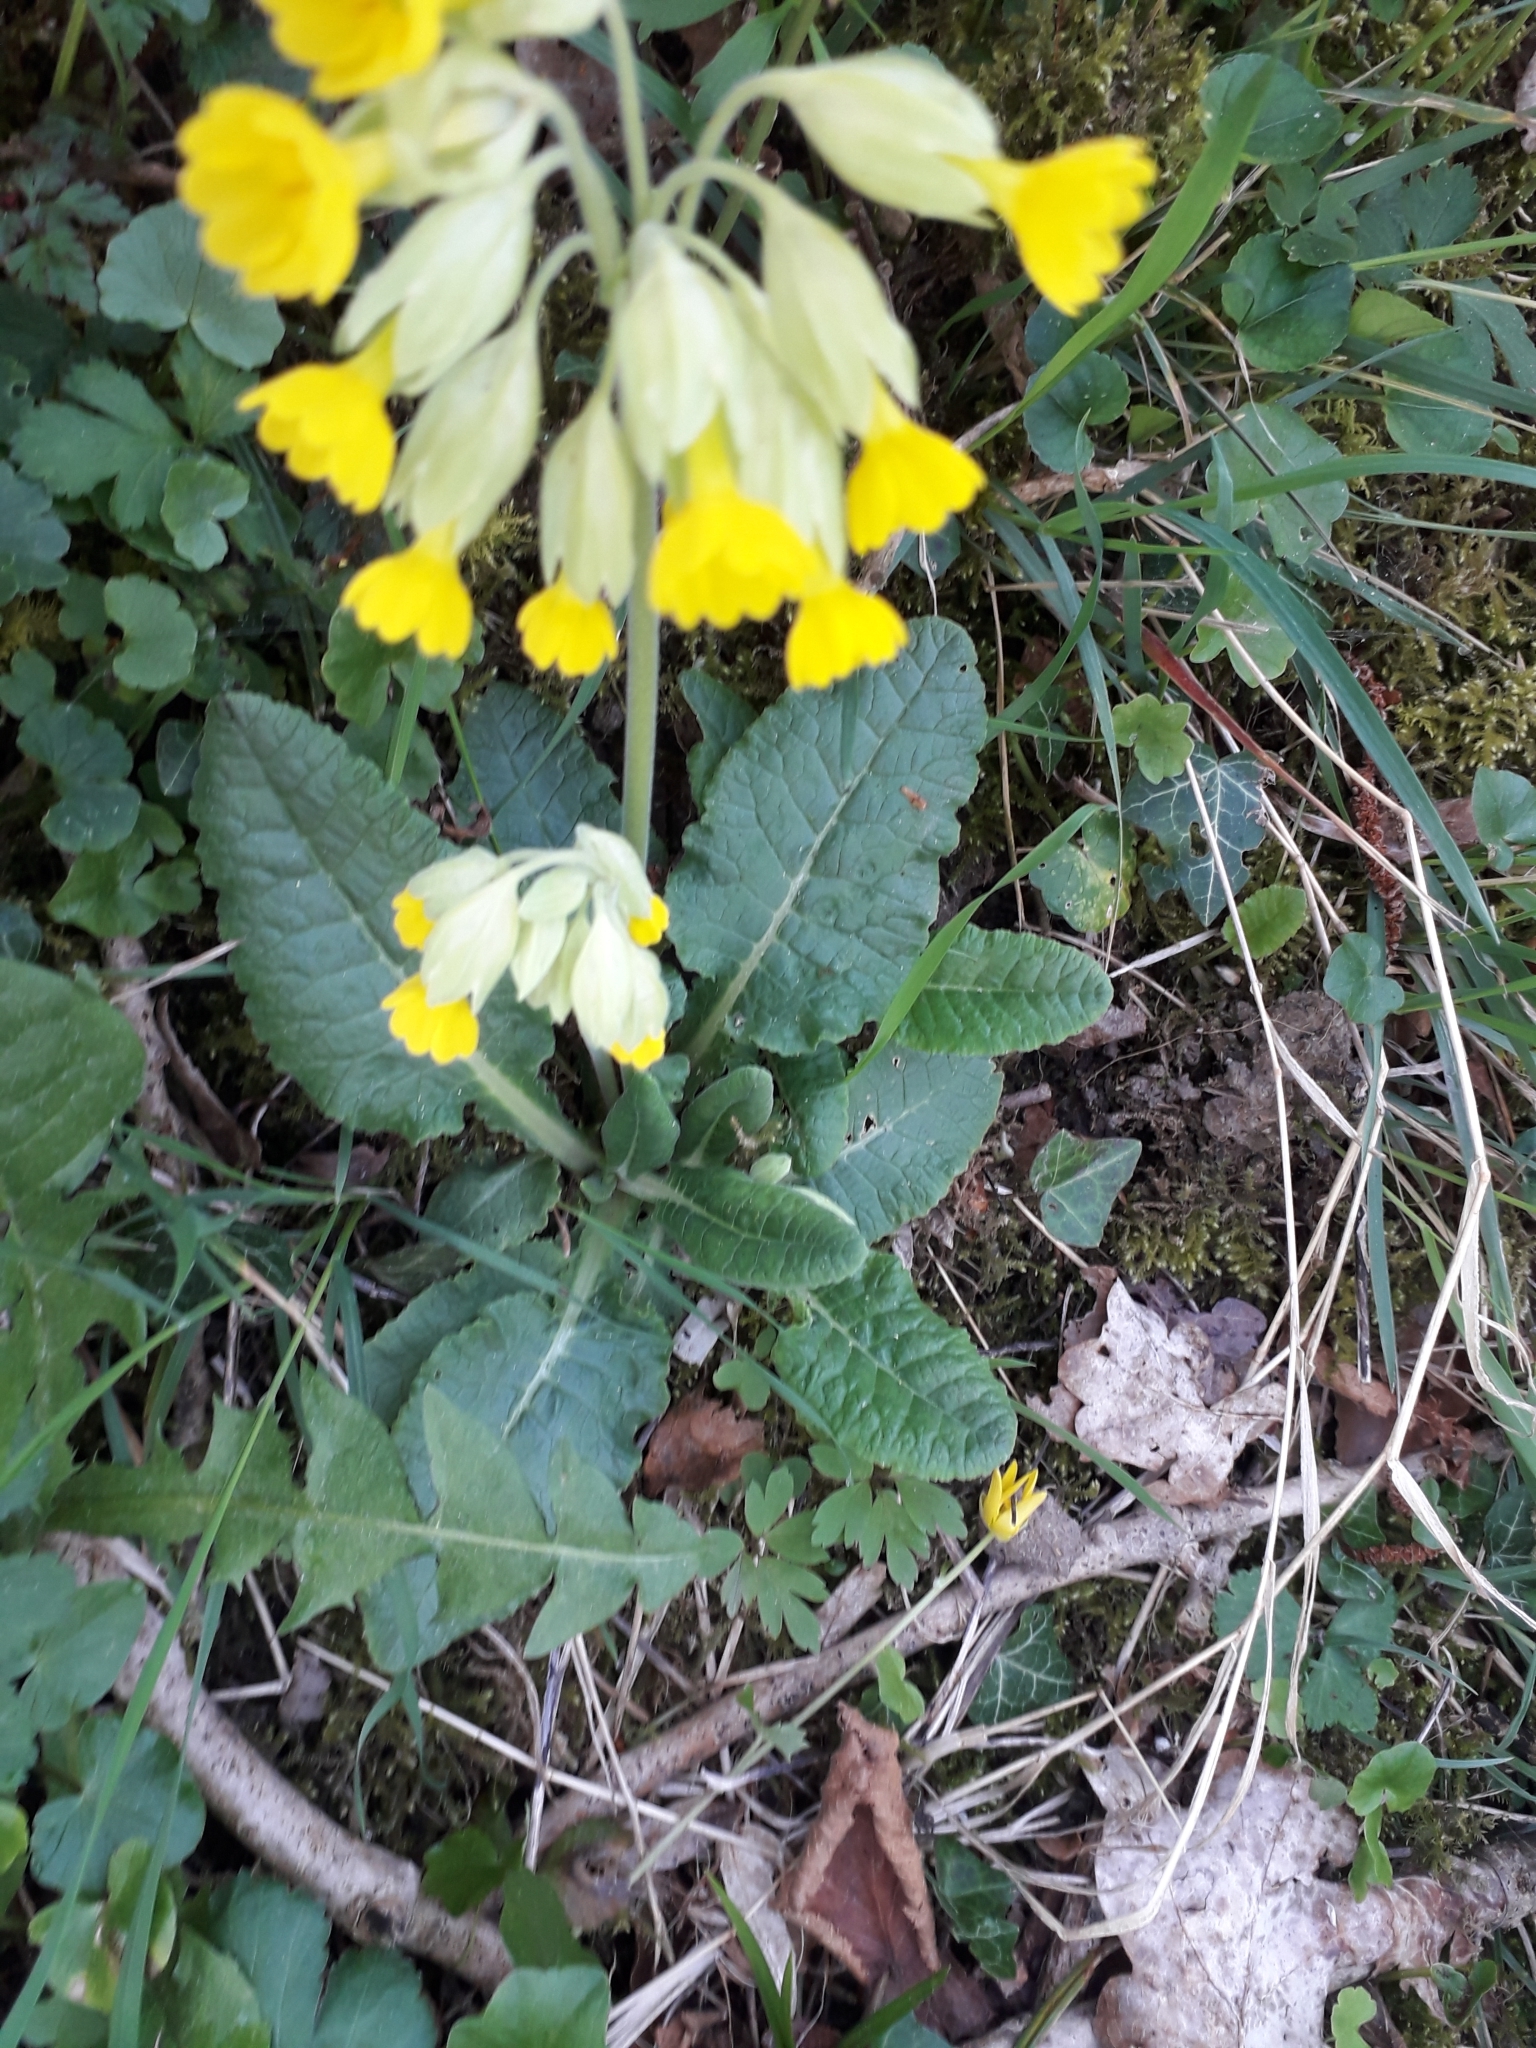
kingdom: Plantae
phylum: Tracheophyta
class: Magnoliopsida
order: Ericales
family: Primulaceae
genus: Primula
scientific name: Primula veris
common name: Cowslip
